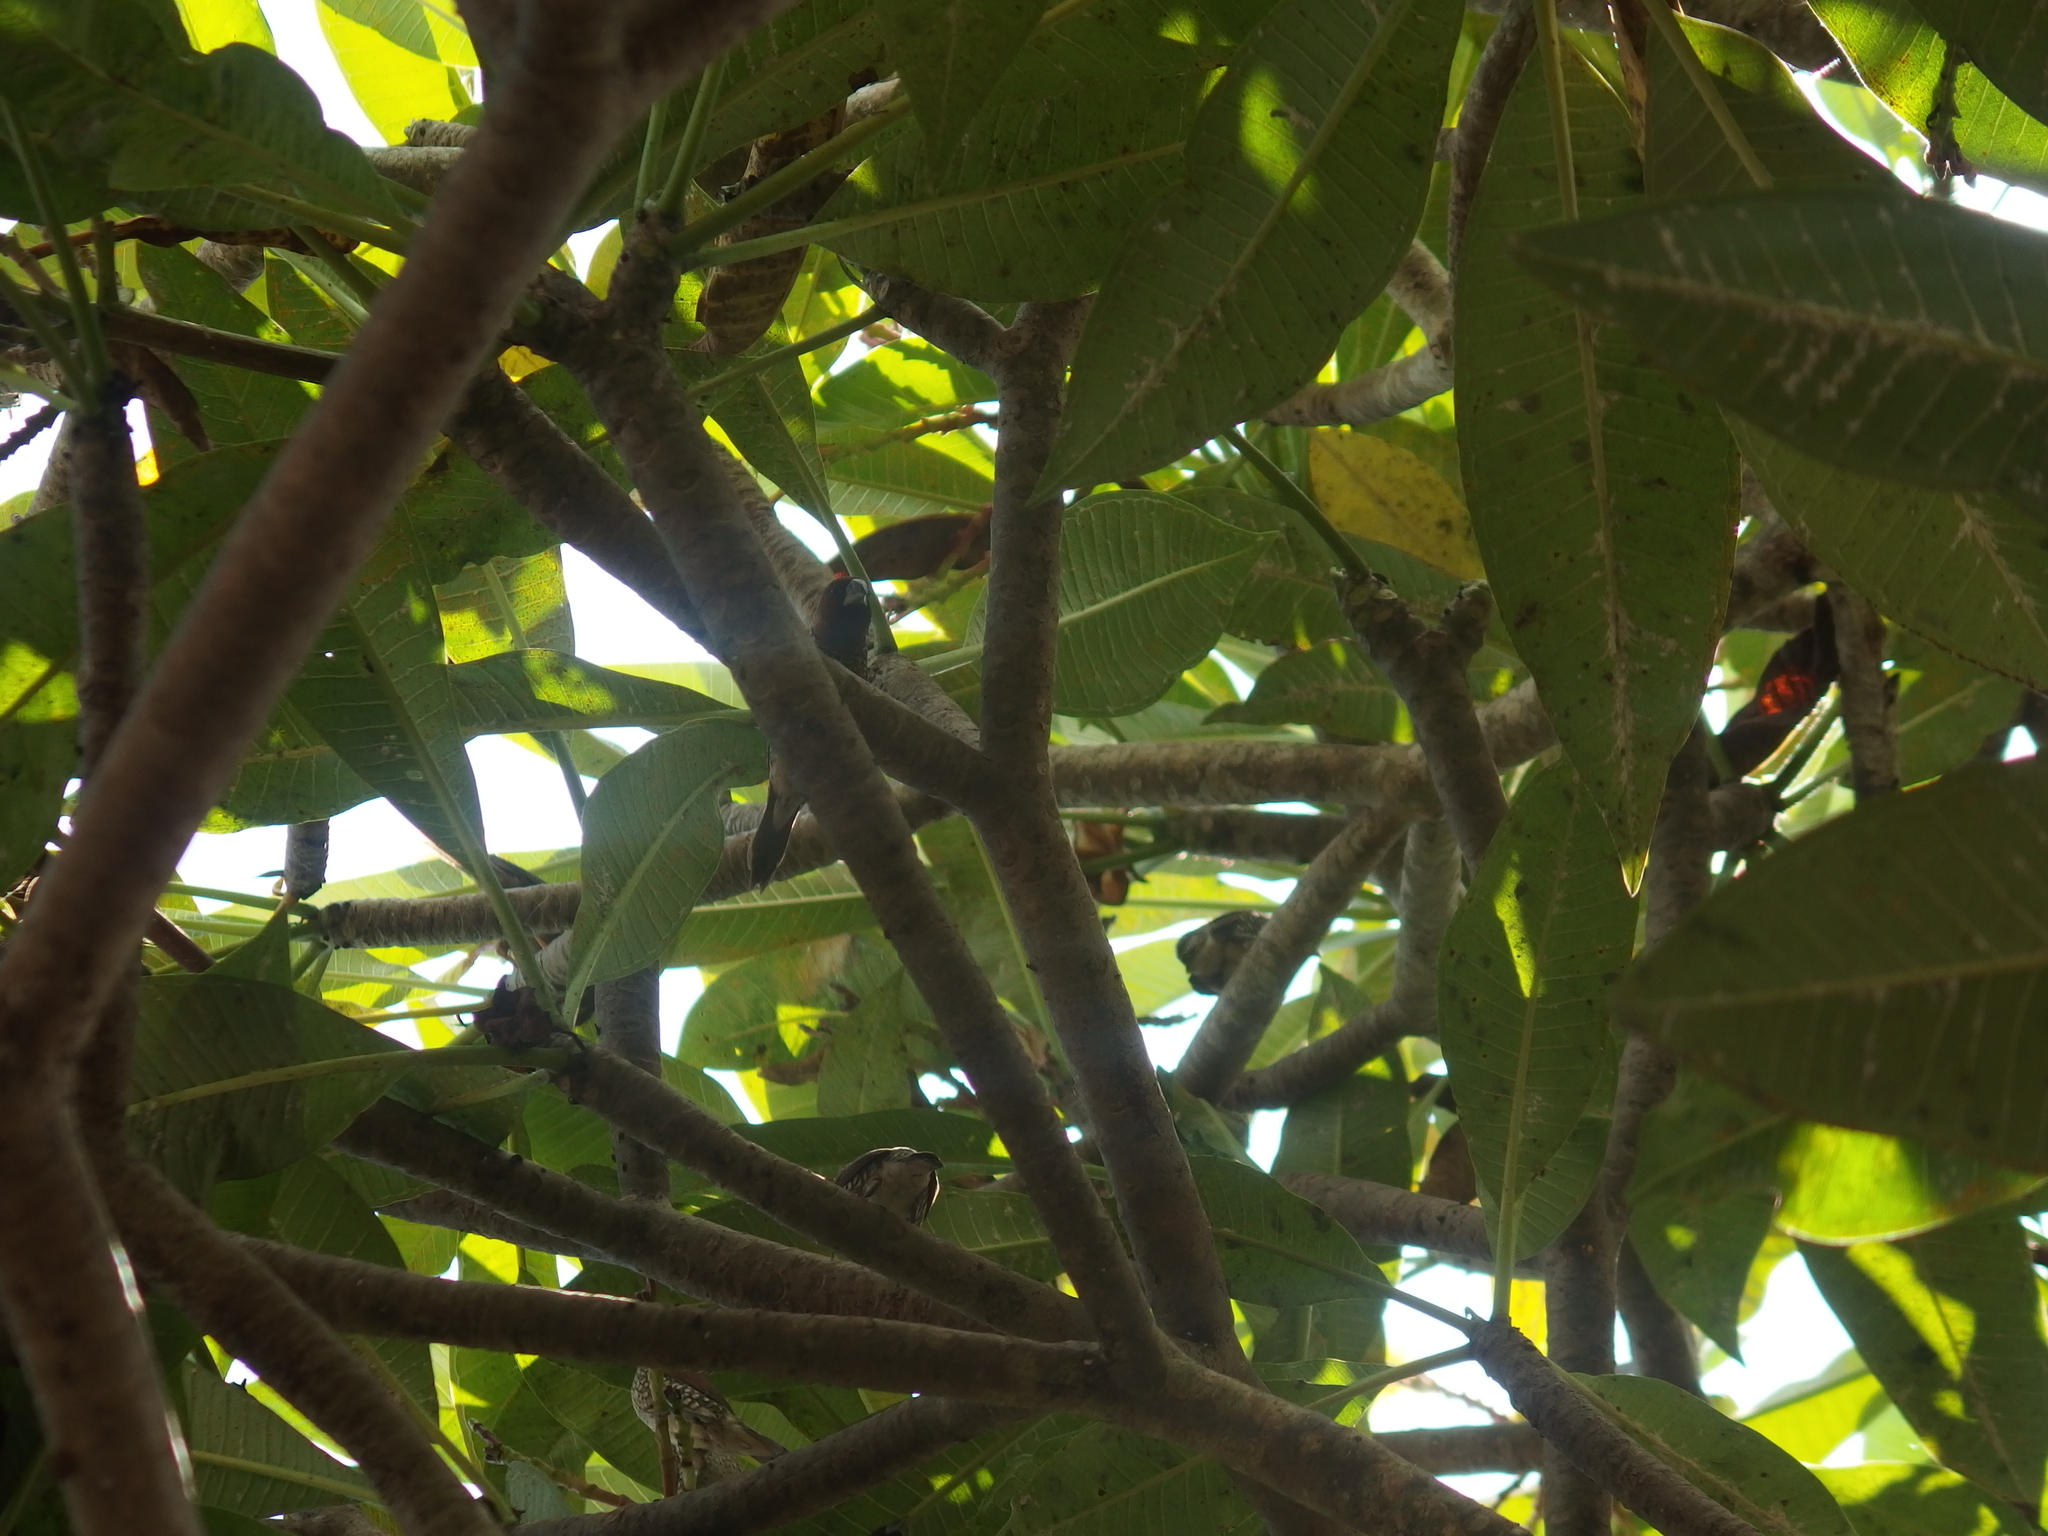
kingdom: Animalia
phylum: Chordata
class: Aves
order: Passeriformes
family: Estrildidae
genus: Lonchura
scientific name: Lonchura punctulata
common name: Scaly-breasted munia
